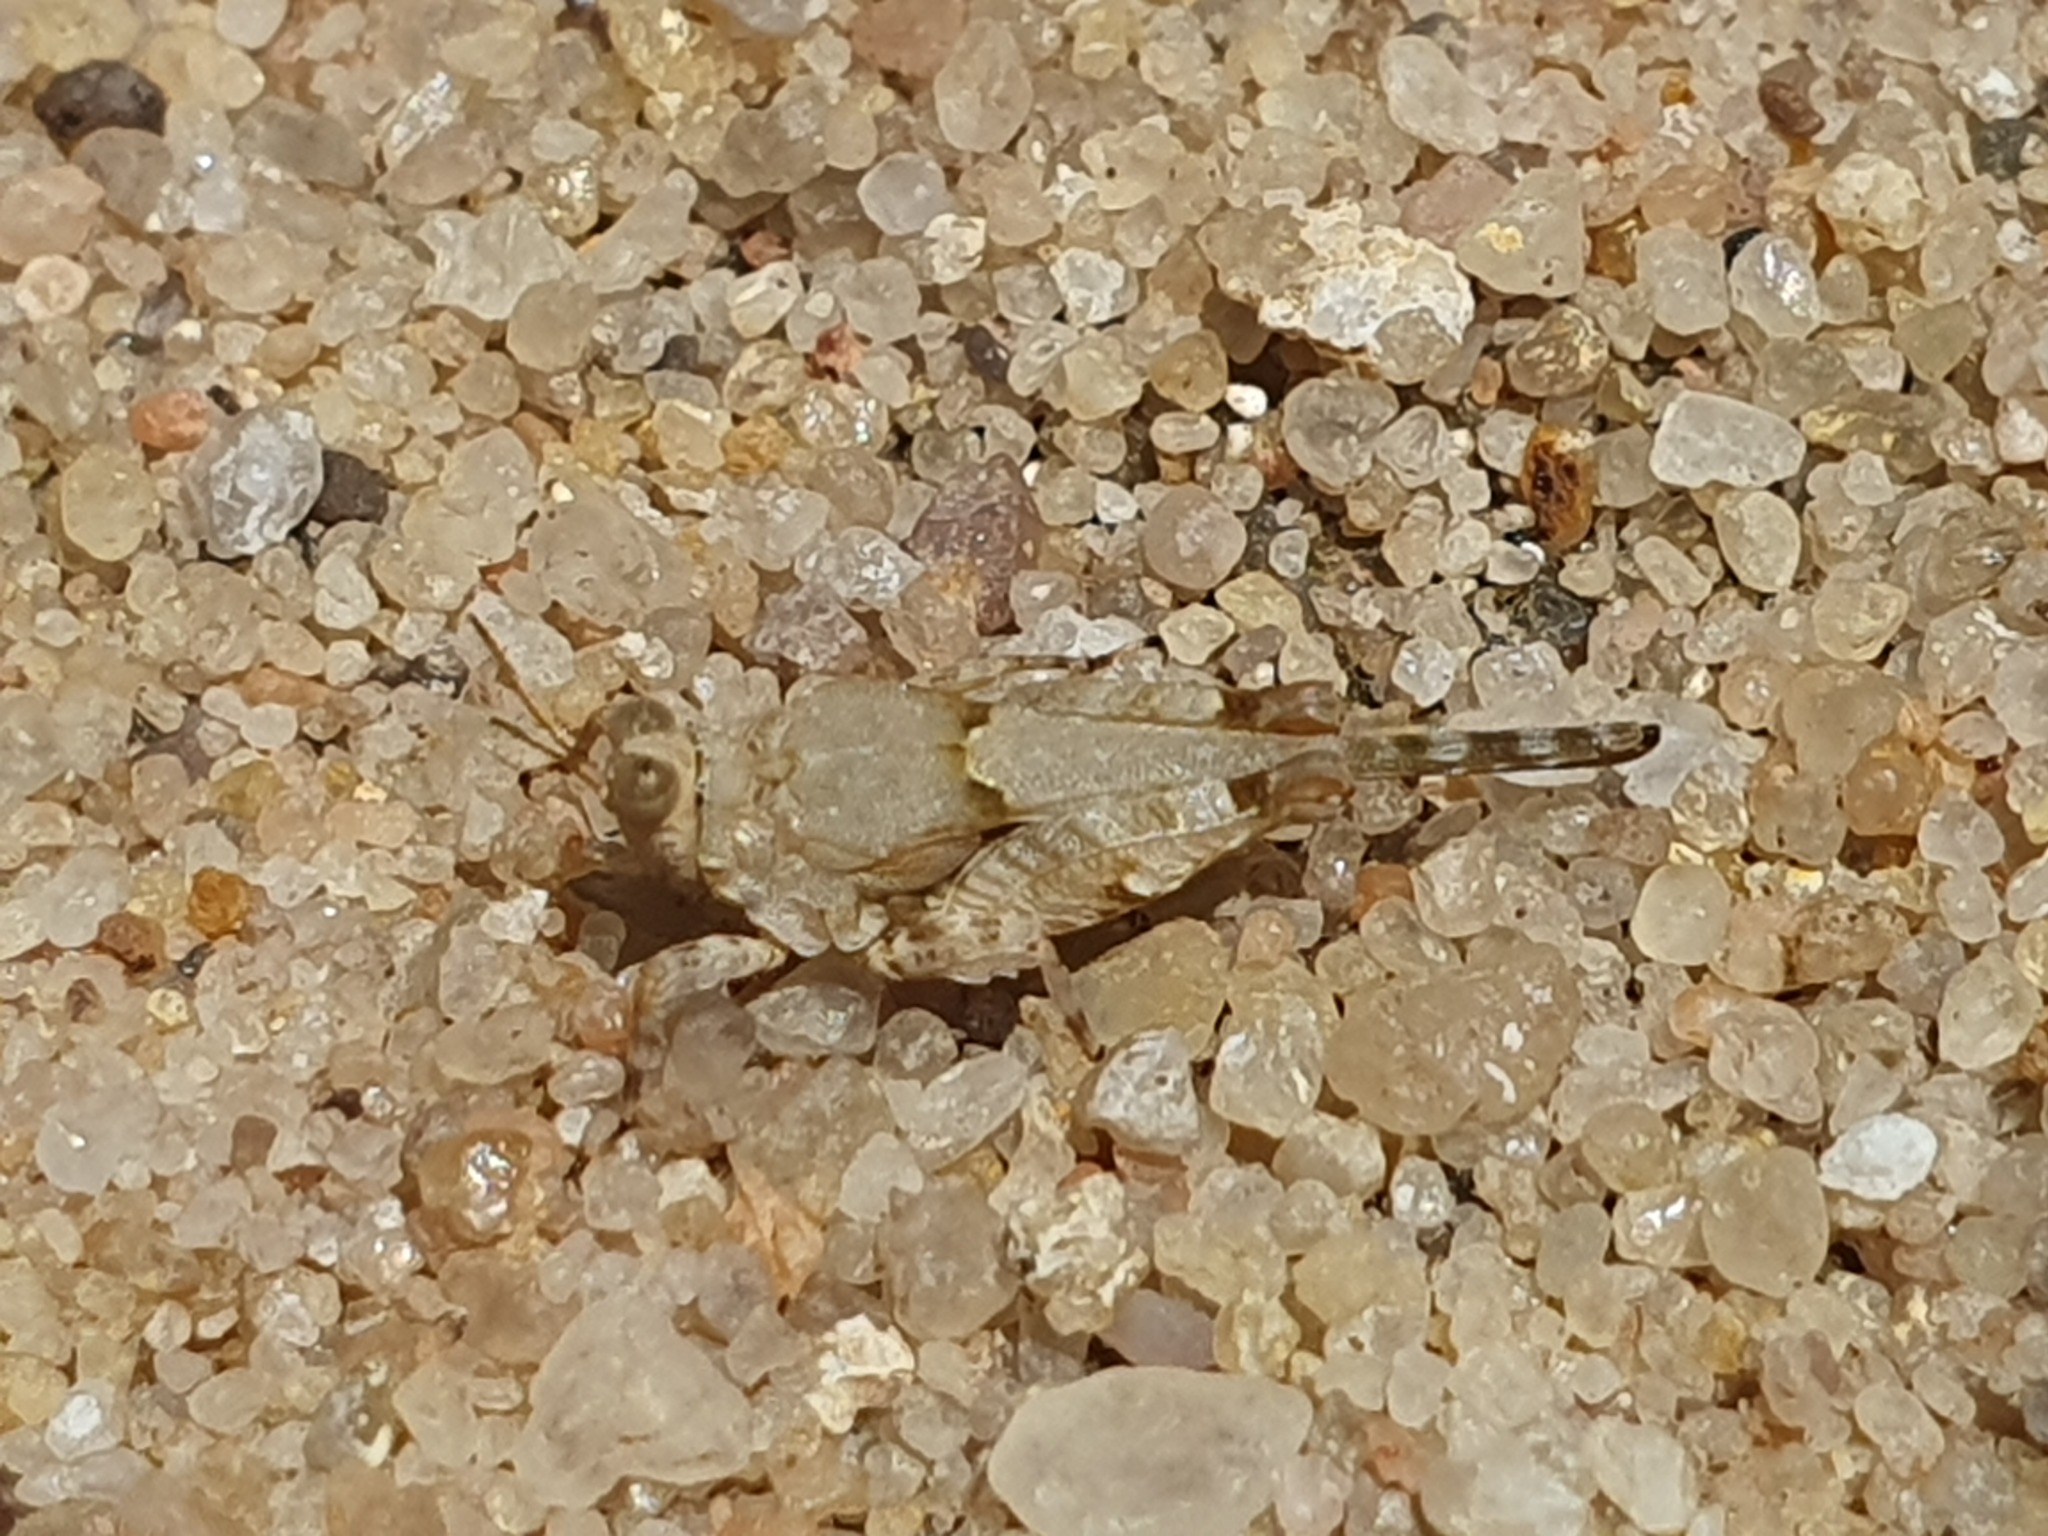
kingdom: Animalia
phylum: Arthropoda
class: Insecta
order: Orthoptera
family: Tetrigidae
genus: Morphopoides
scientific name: Morphopoides madagascariense
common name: Madagascar flatpaw pygmy grasshopper
